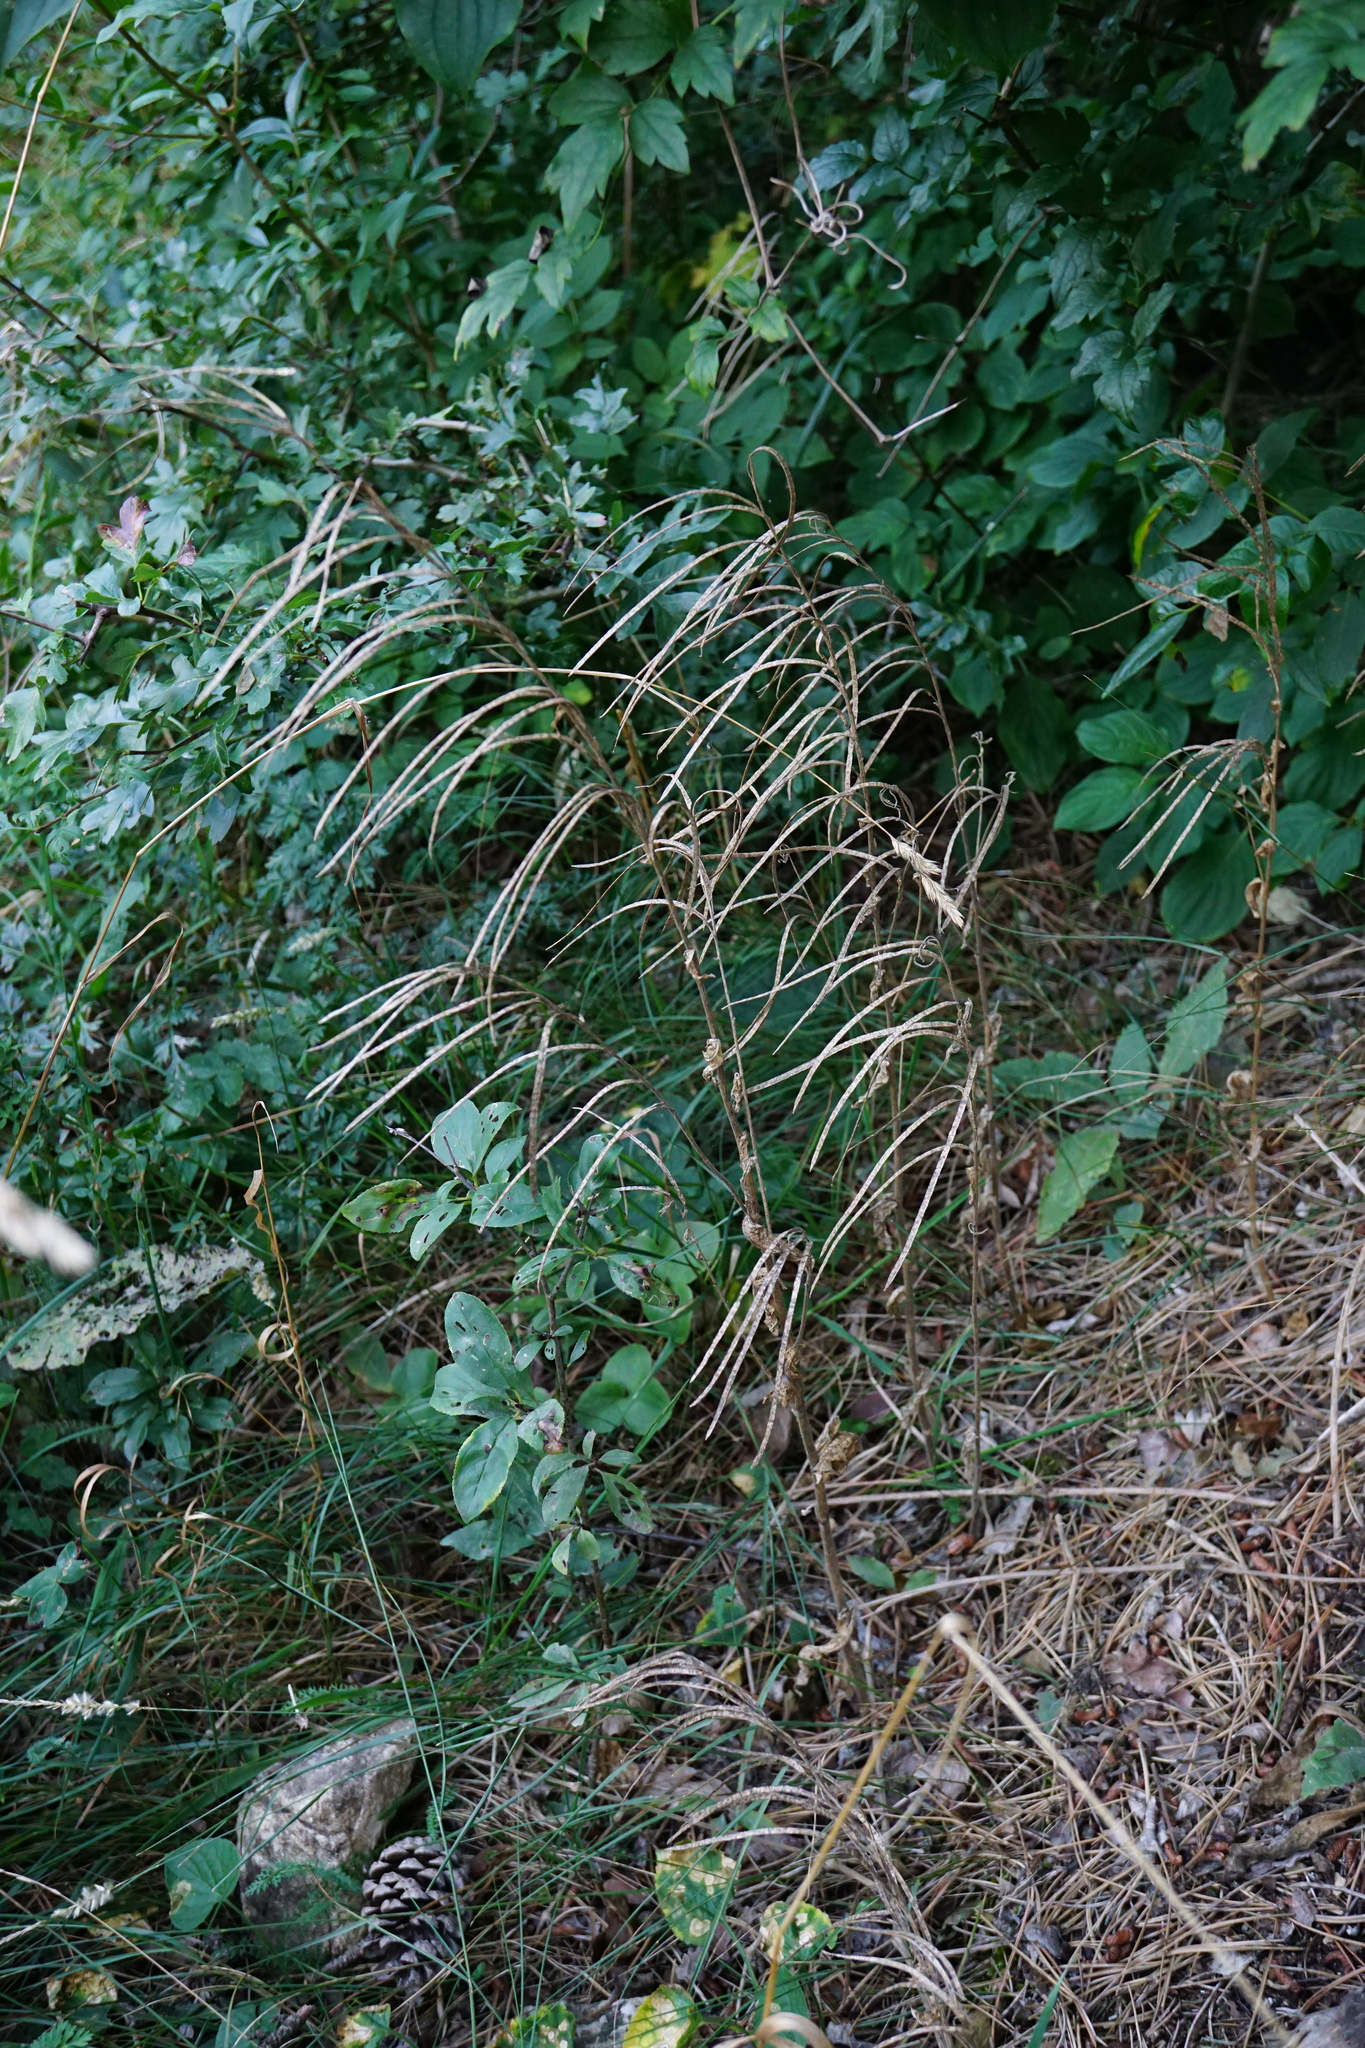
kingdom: Plantae
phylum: Tracheophyta
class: Magnoliopsida
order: Brassicales
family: Brassicaceae
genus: Pseudoturritis
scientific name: Pseudoturritis turrita
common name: Tower cress
